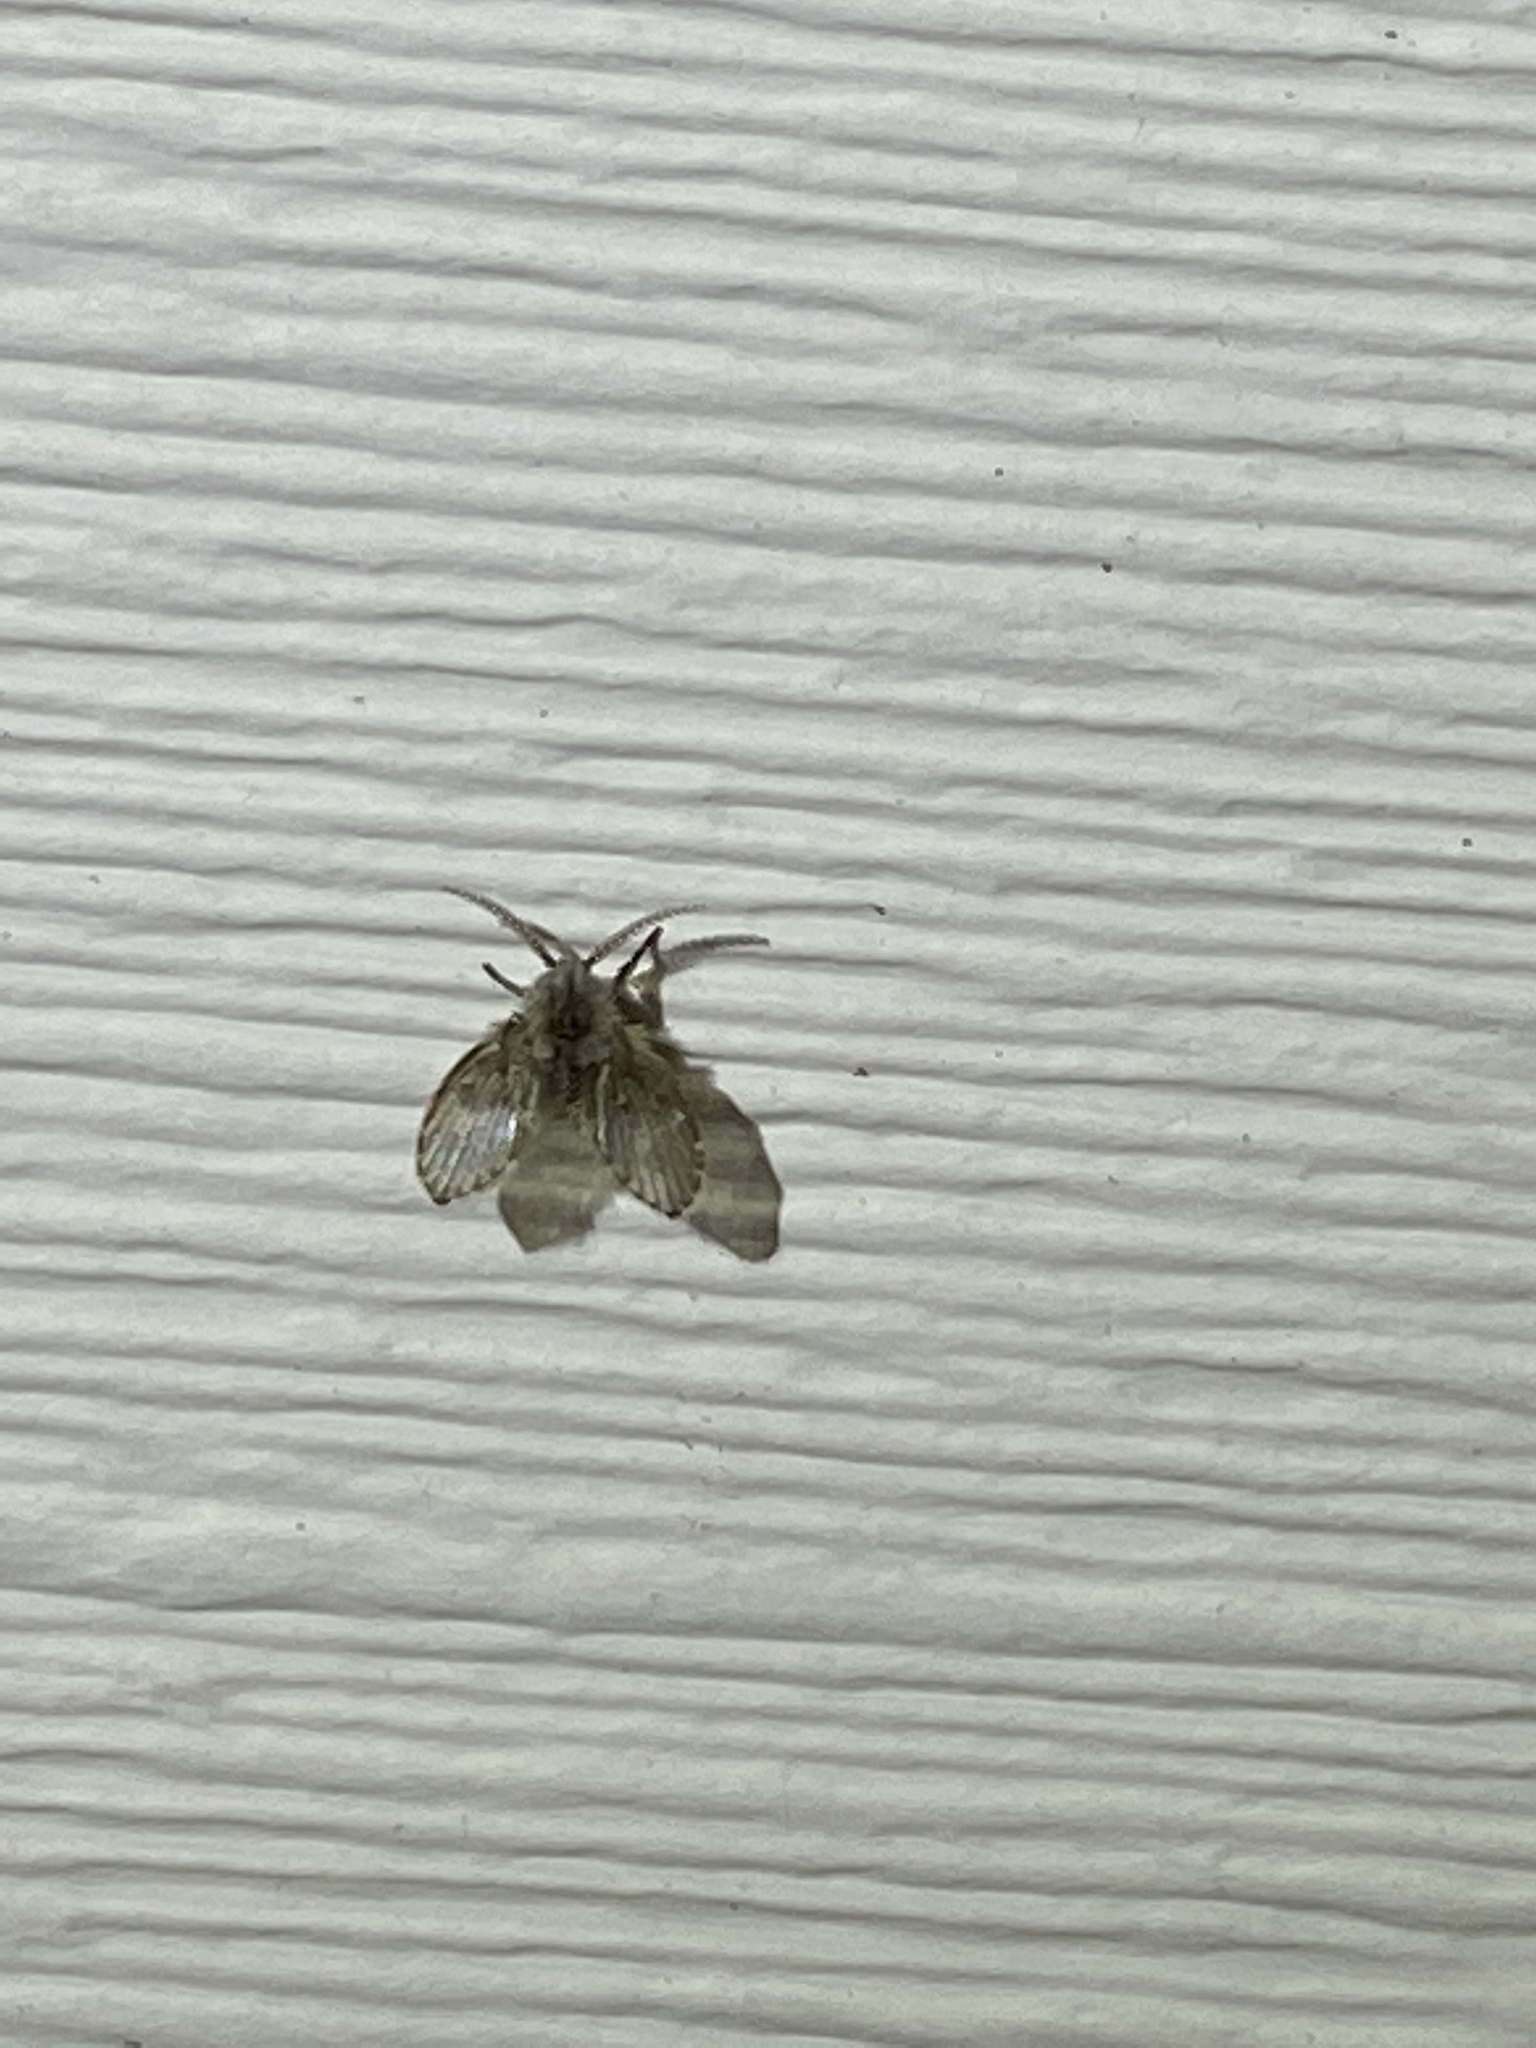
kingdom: Animalia
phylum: Arthropoda
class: Insecta
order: Diptera
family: Psychodidae
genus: Clogmia
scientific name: Clogmia albipunctatus
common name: White-spotted moth fly
